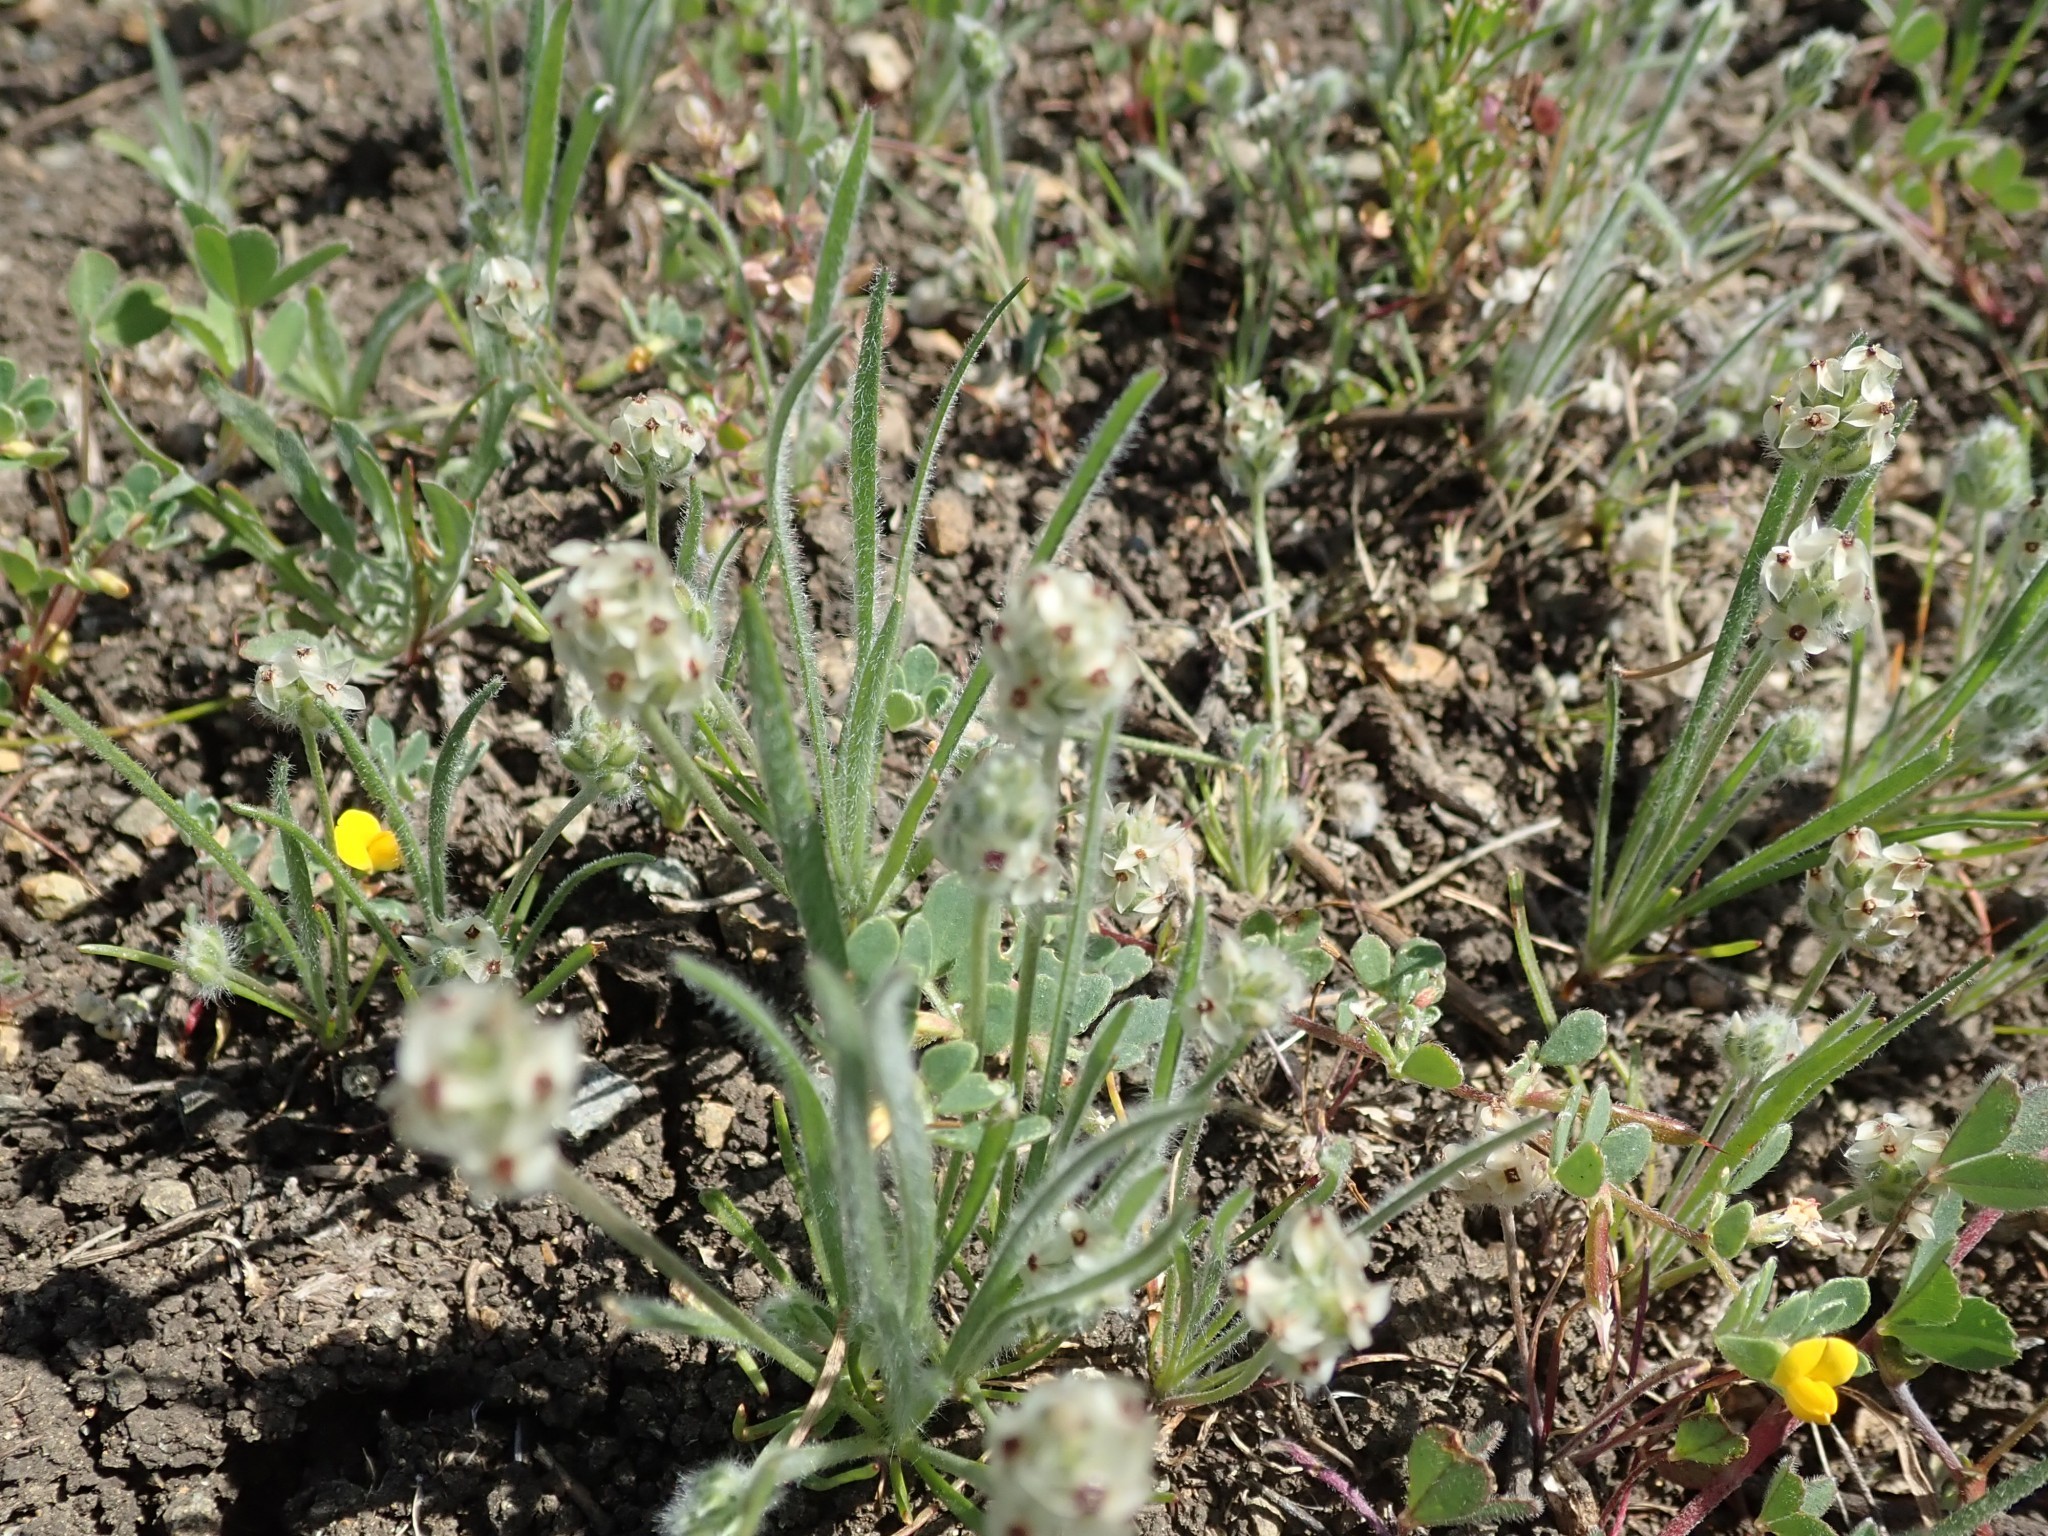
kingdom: Plantae
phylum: Tracheophyta
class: Magnoliopsida
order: Lamiales
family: Plantaginaceae
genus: Plantago
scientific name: Plantago erecta
